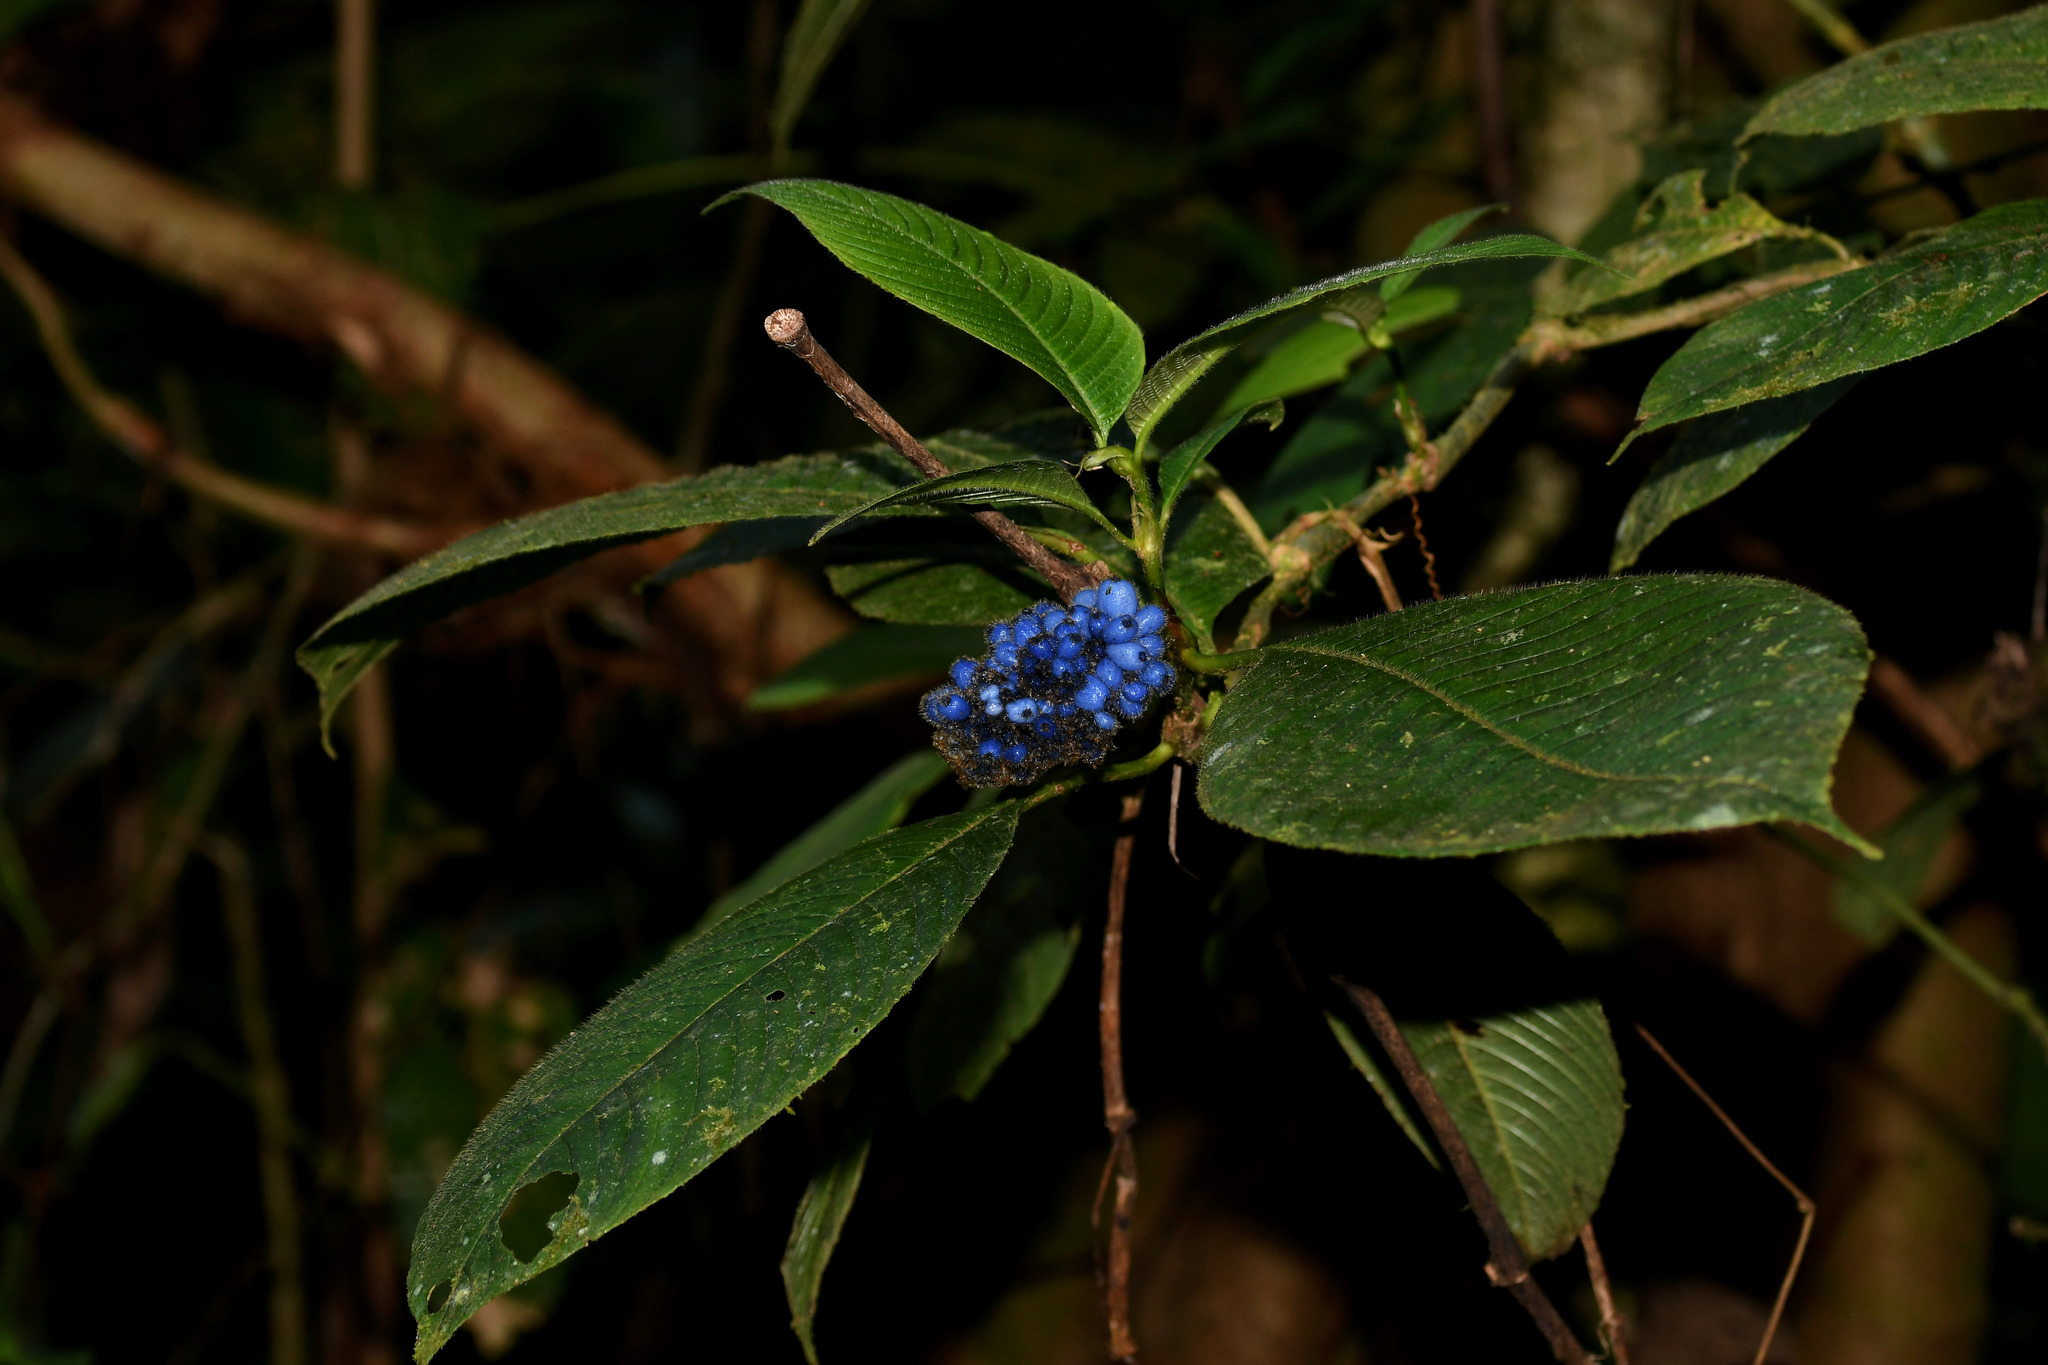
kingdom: Plantae
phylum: Tracheophyta
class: Magnoliopsida
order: Gentianales
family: Rubiaceae
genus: Palicourea
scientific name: Palicourea pilosa
